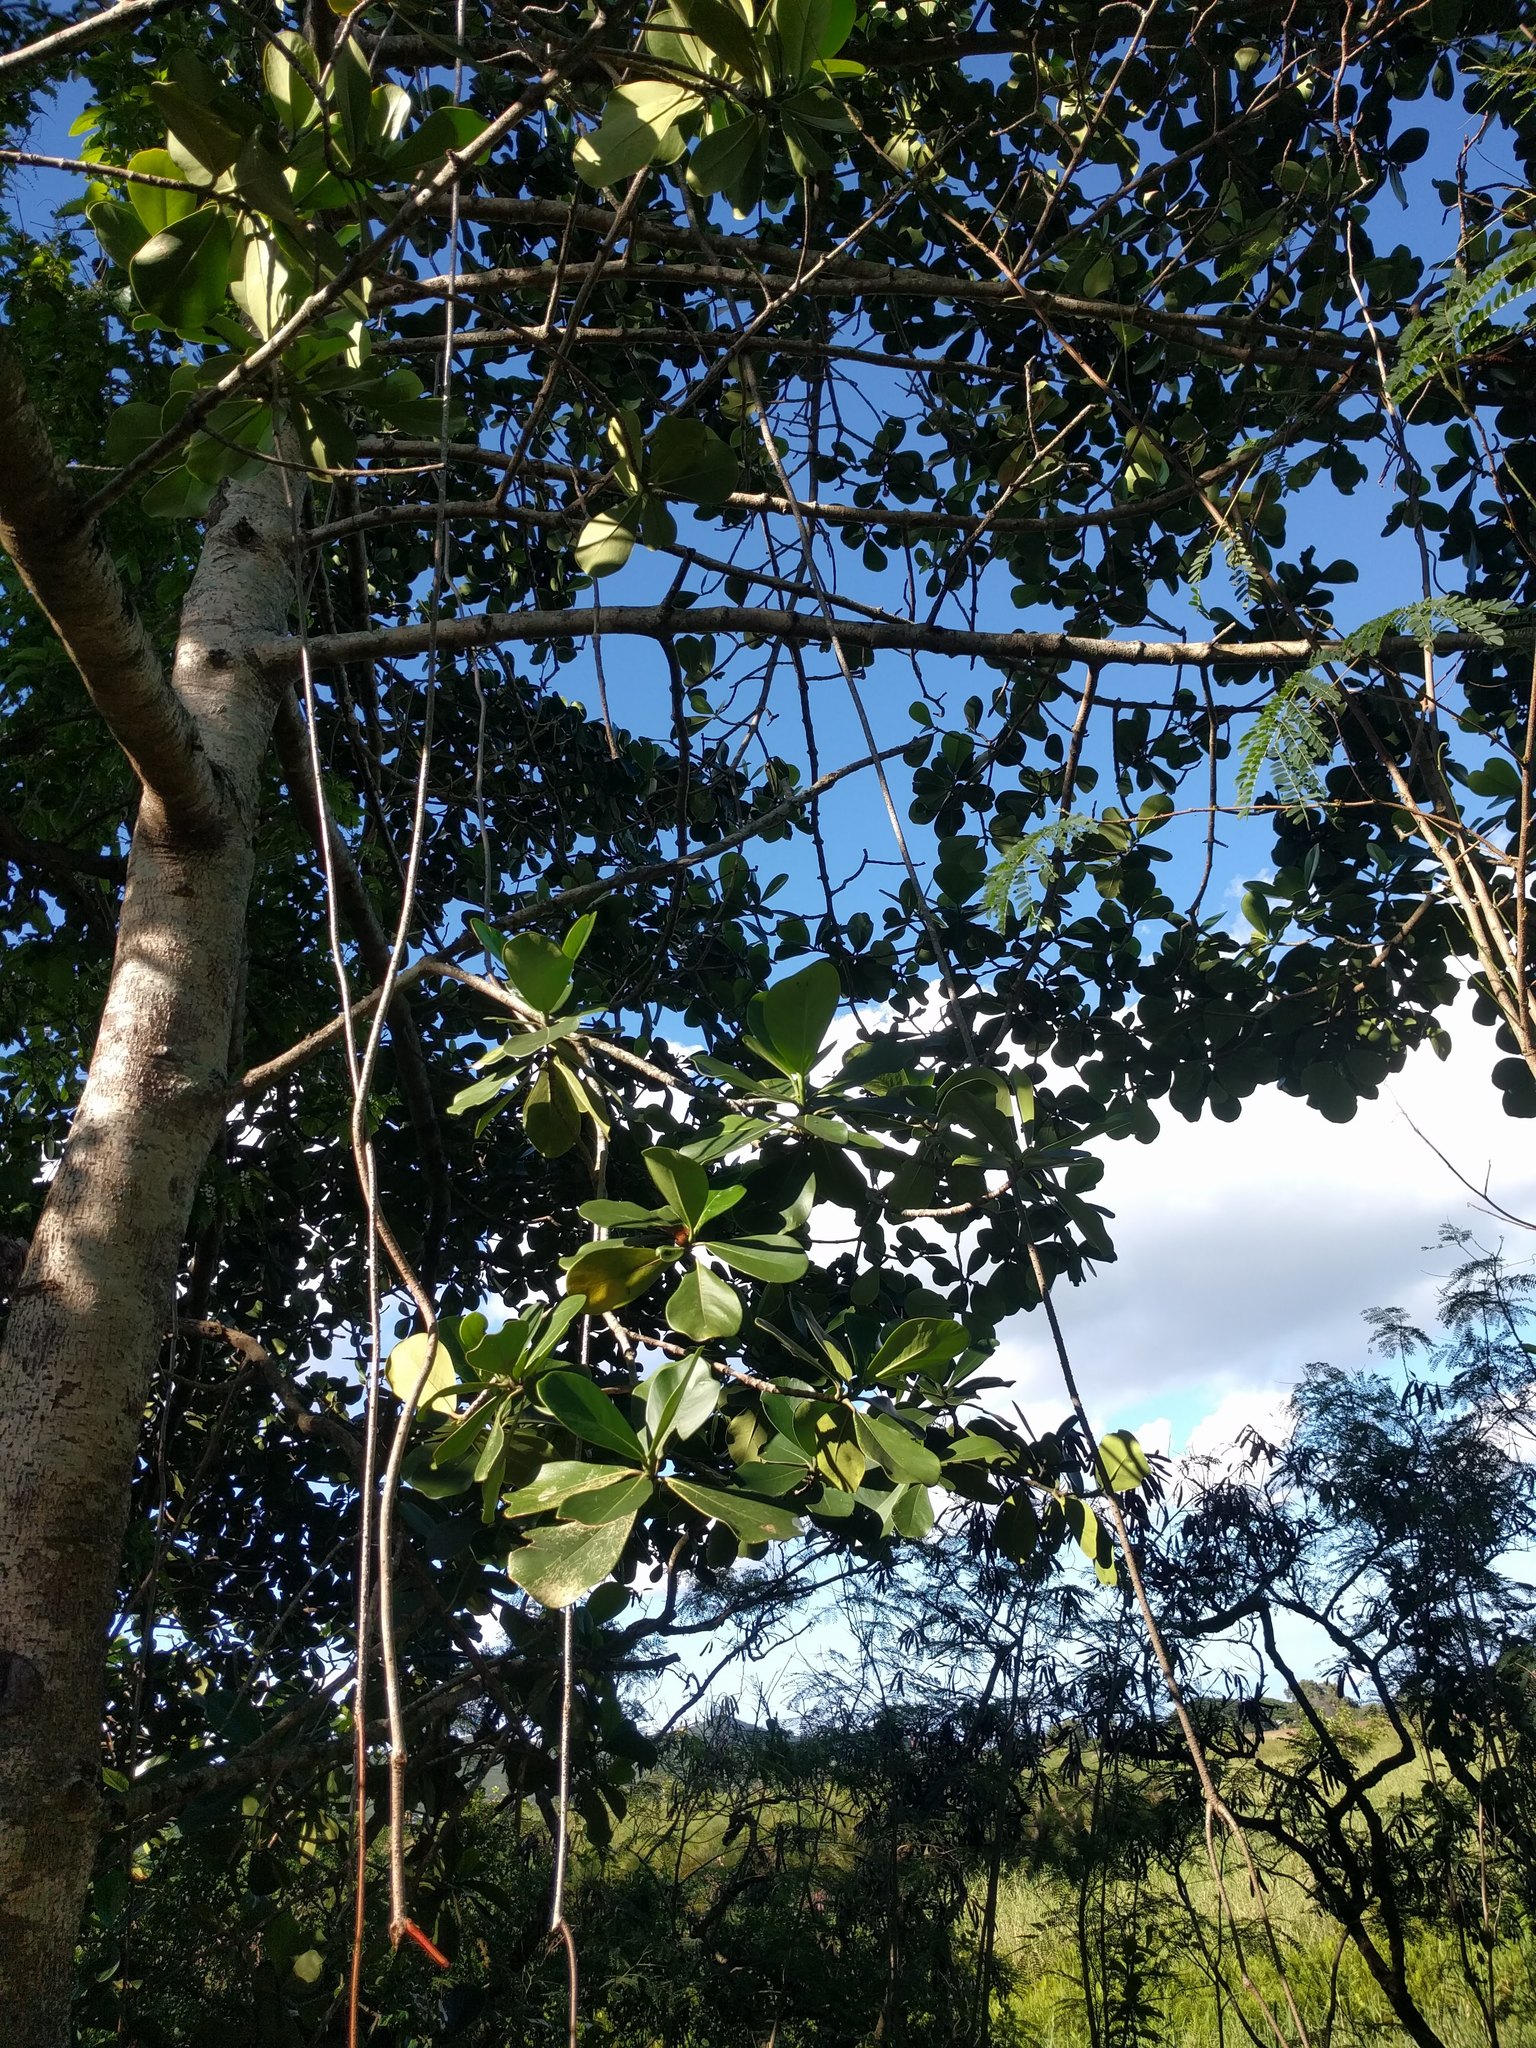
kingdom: Plantae
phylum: Tracheophyta
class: Magnoliopsida
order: Malpighiales
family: Clusiaceae
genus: Clusia
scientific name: Clusia rosea
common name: Scotch attorney
